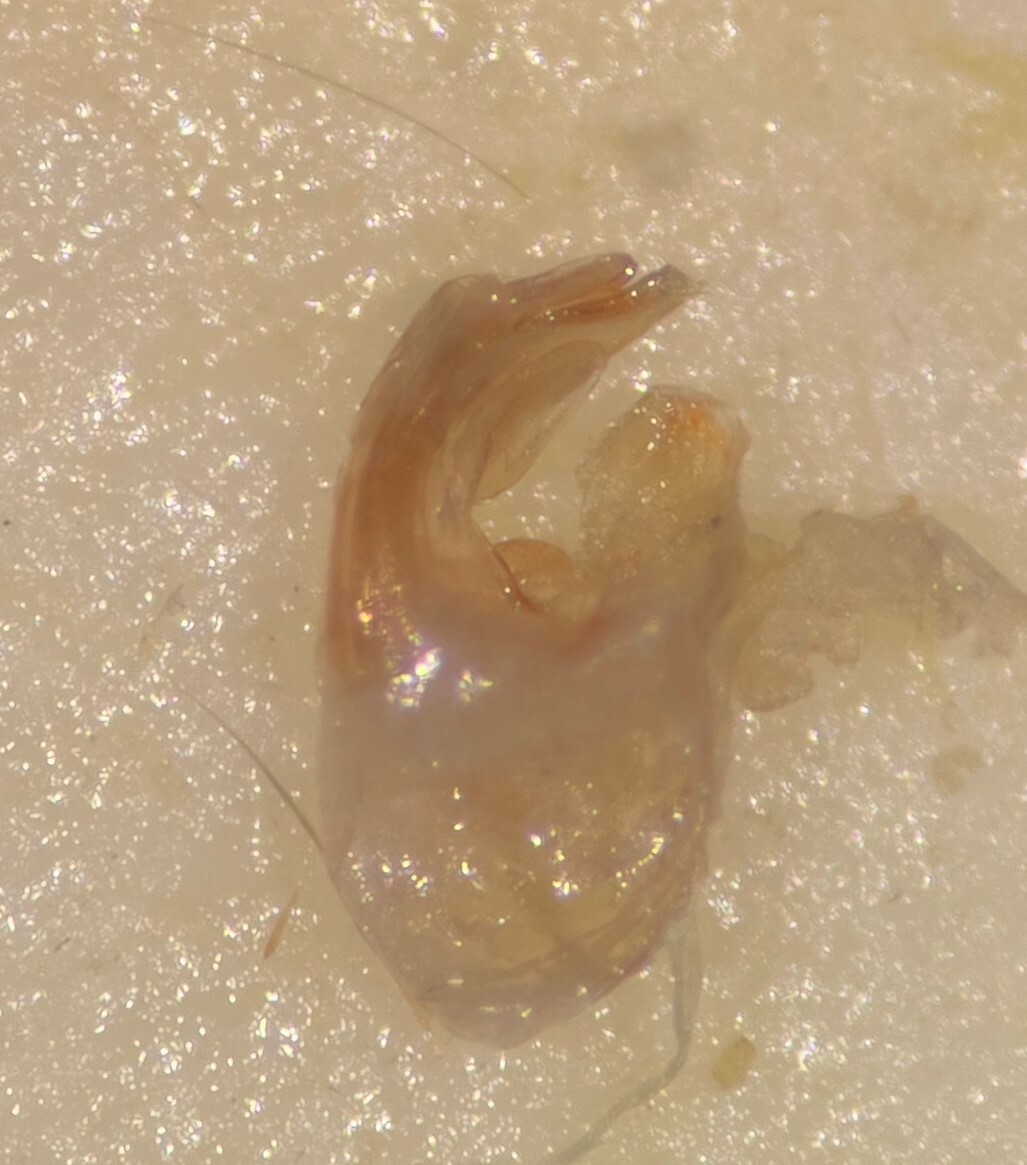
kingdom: Animalia
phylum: Arthropoda
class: Insecta
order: Hemiptera
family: Corixidae
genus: Sigara
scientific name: Sigara signata
